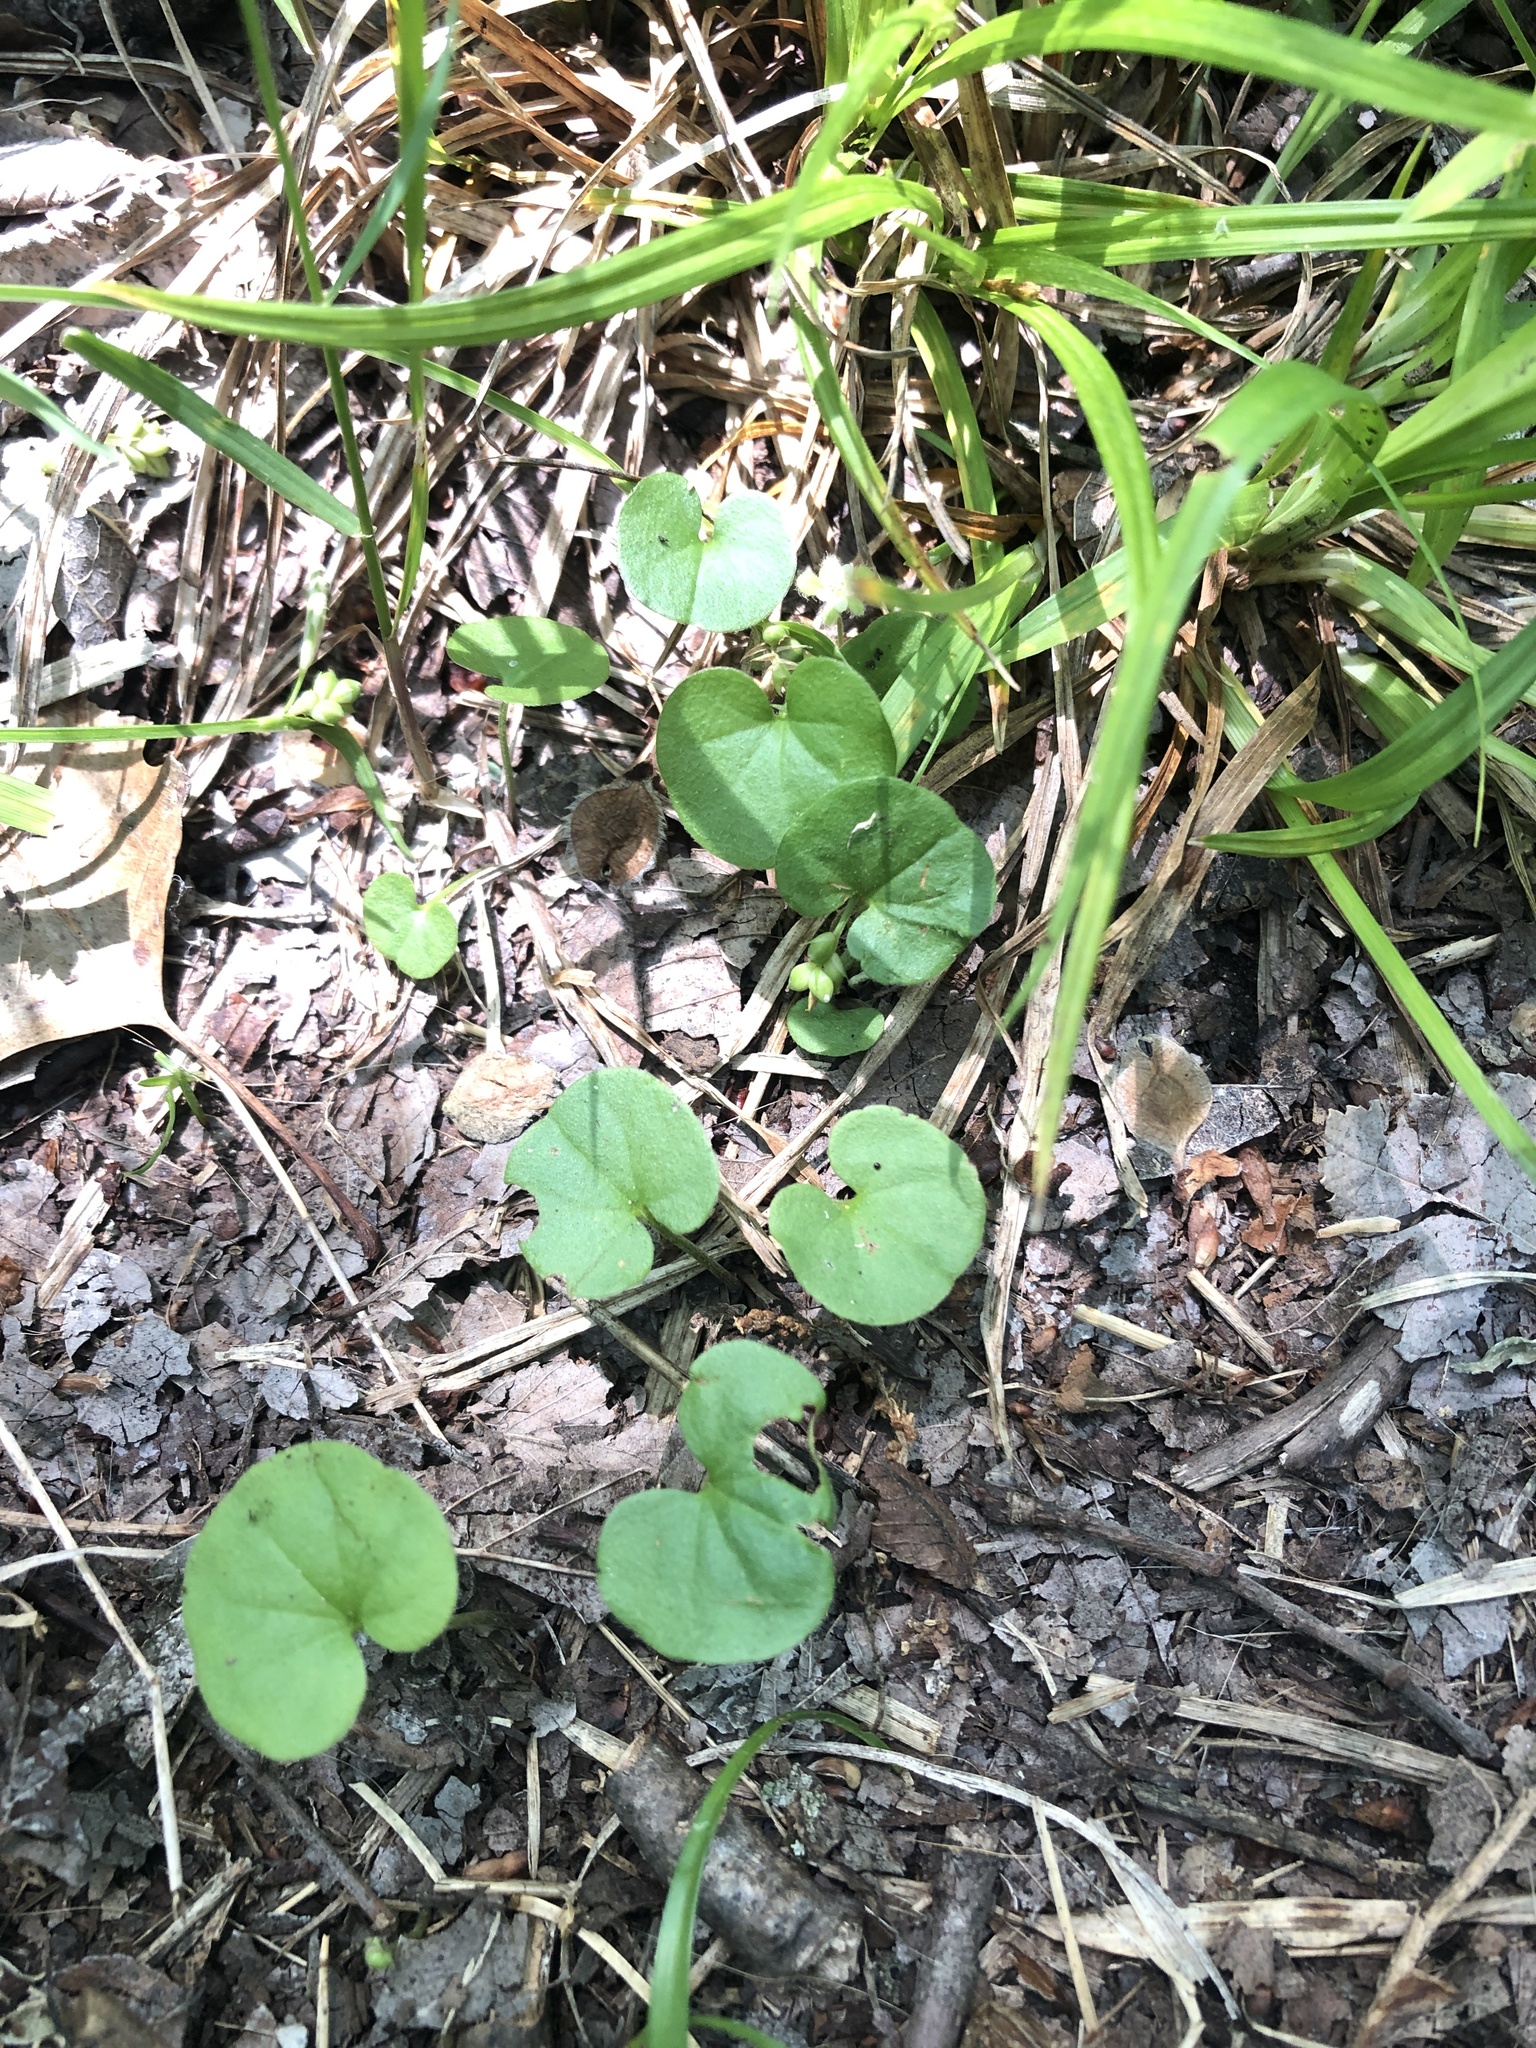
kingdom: Plantae
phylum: Tracheophyta
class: Magnoliopsida
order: Solanales
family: Convolvulaceae
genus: Dichondra
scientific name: Dichondra carolinensis
